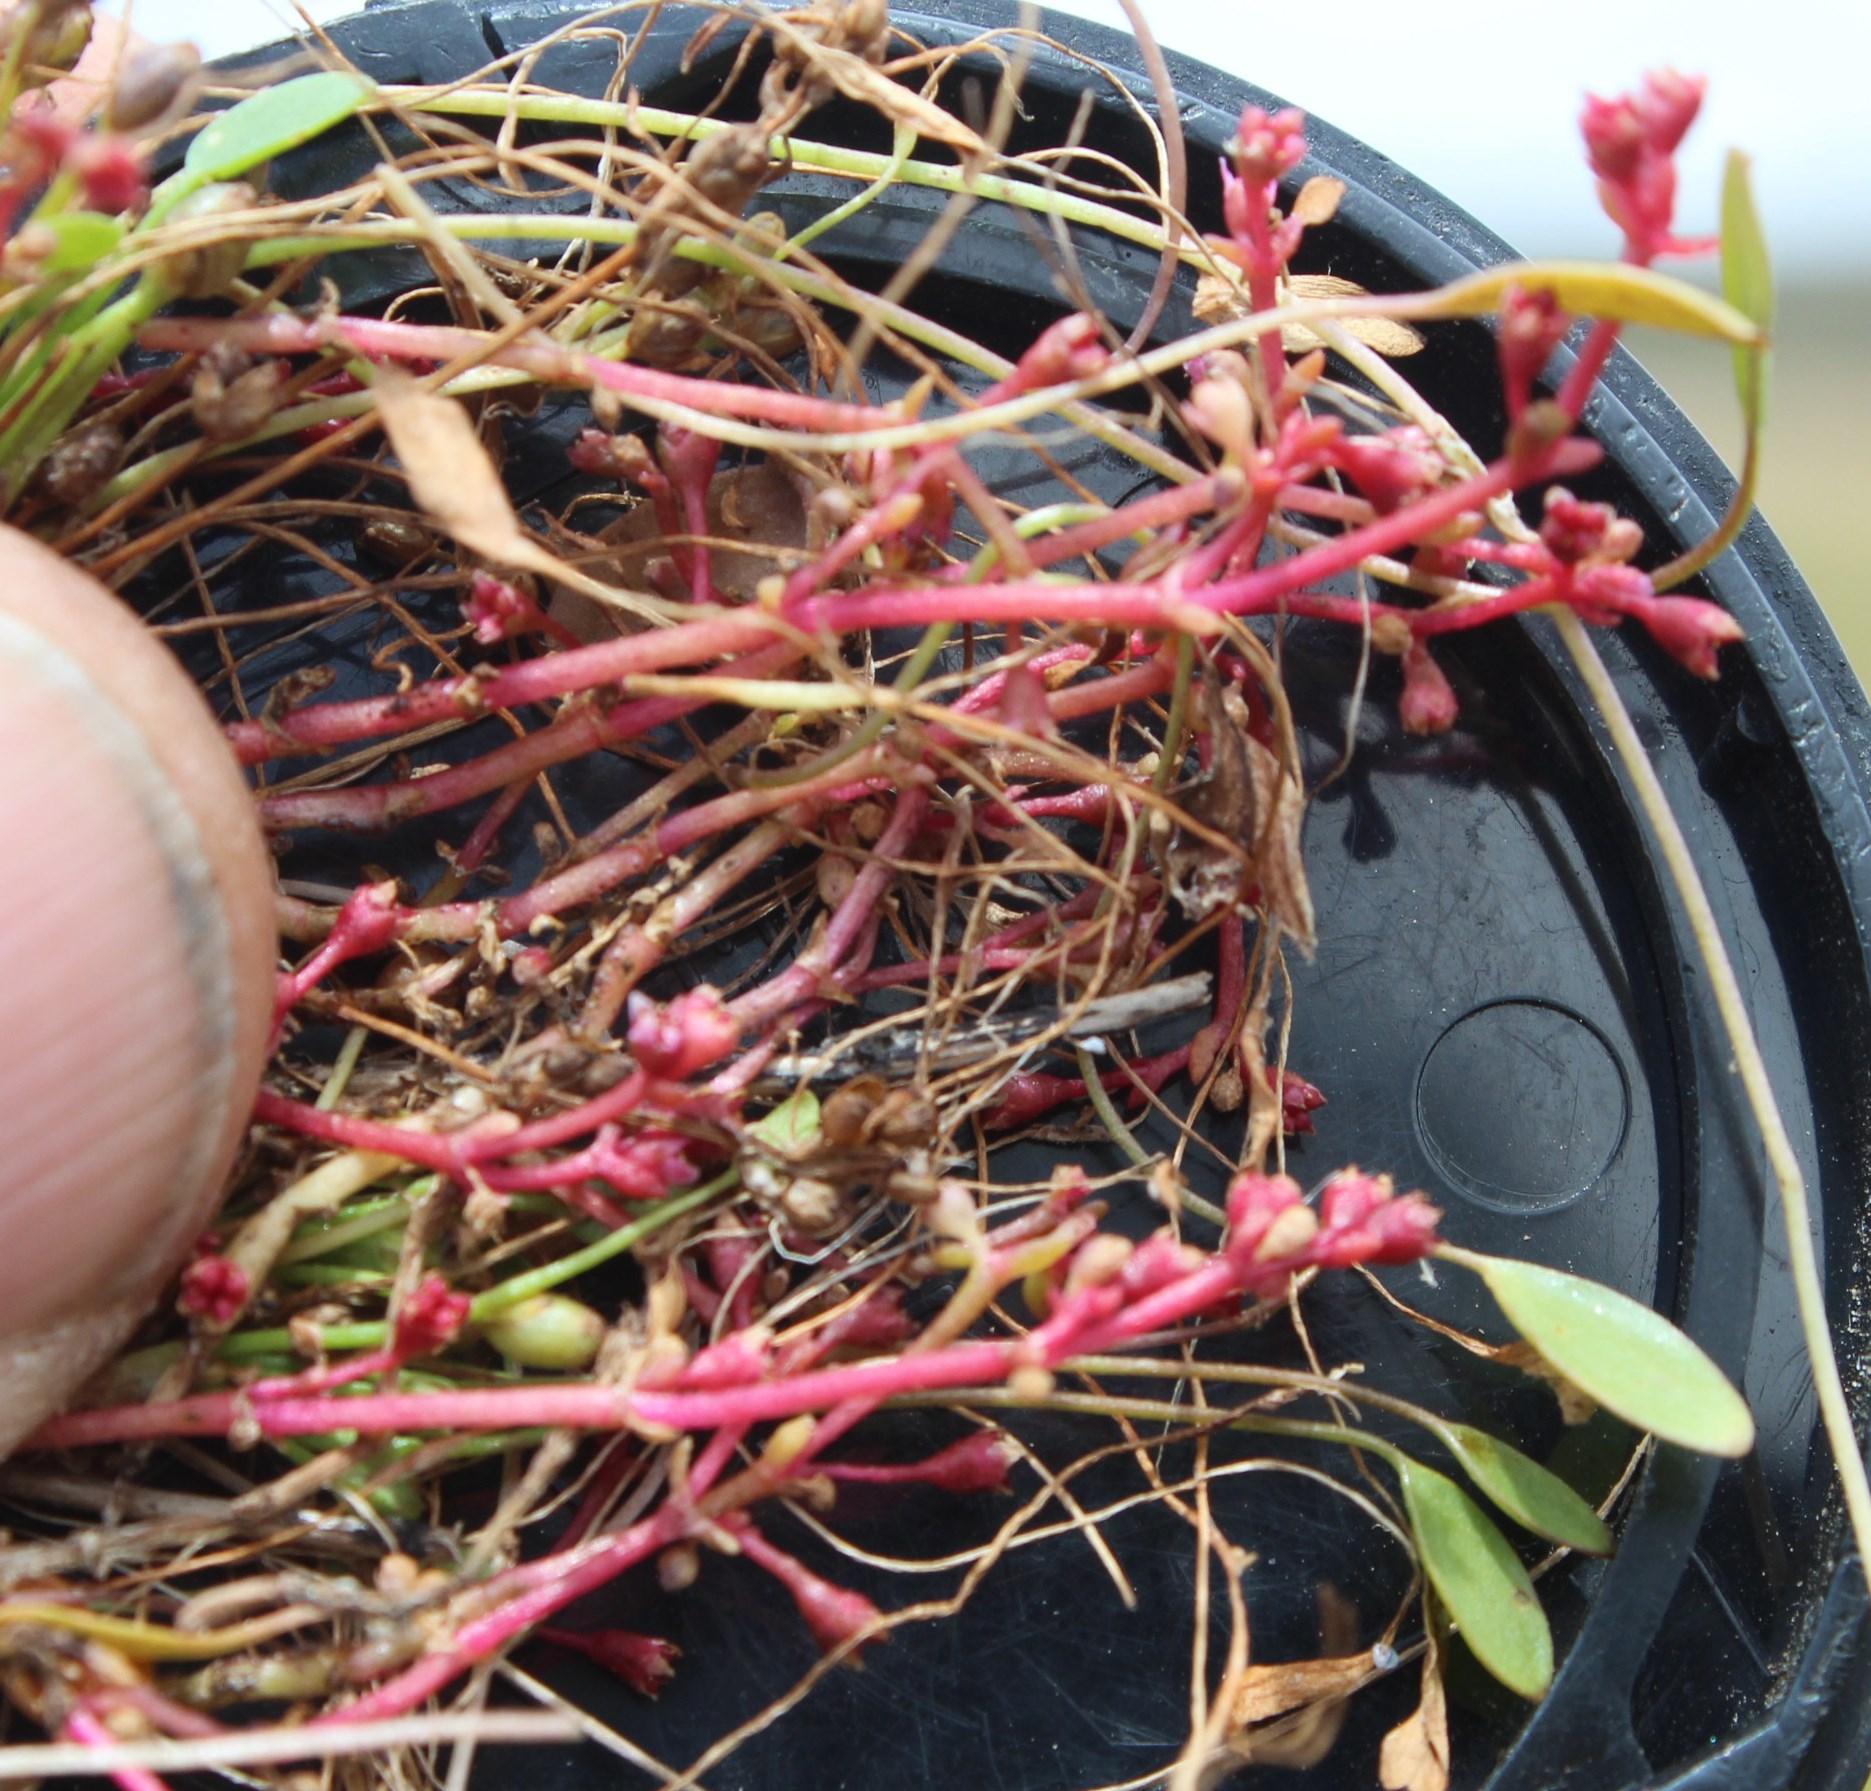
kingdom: Plantae
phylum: Tracheophyta
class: Magnoliopsida
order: Saxifragales
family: Crassulaceae
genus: Crassula
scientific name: Crassula vaillantii
